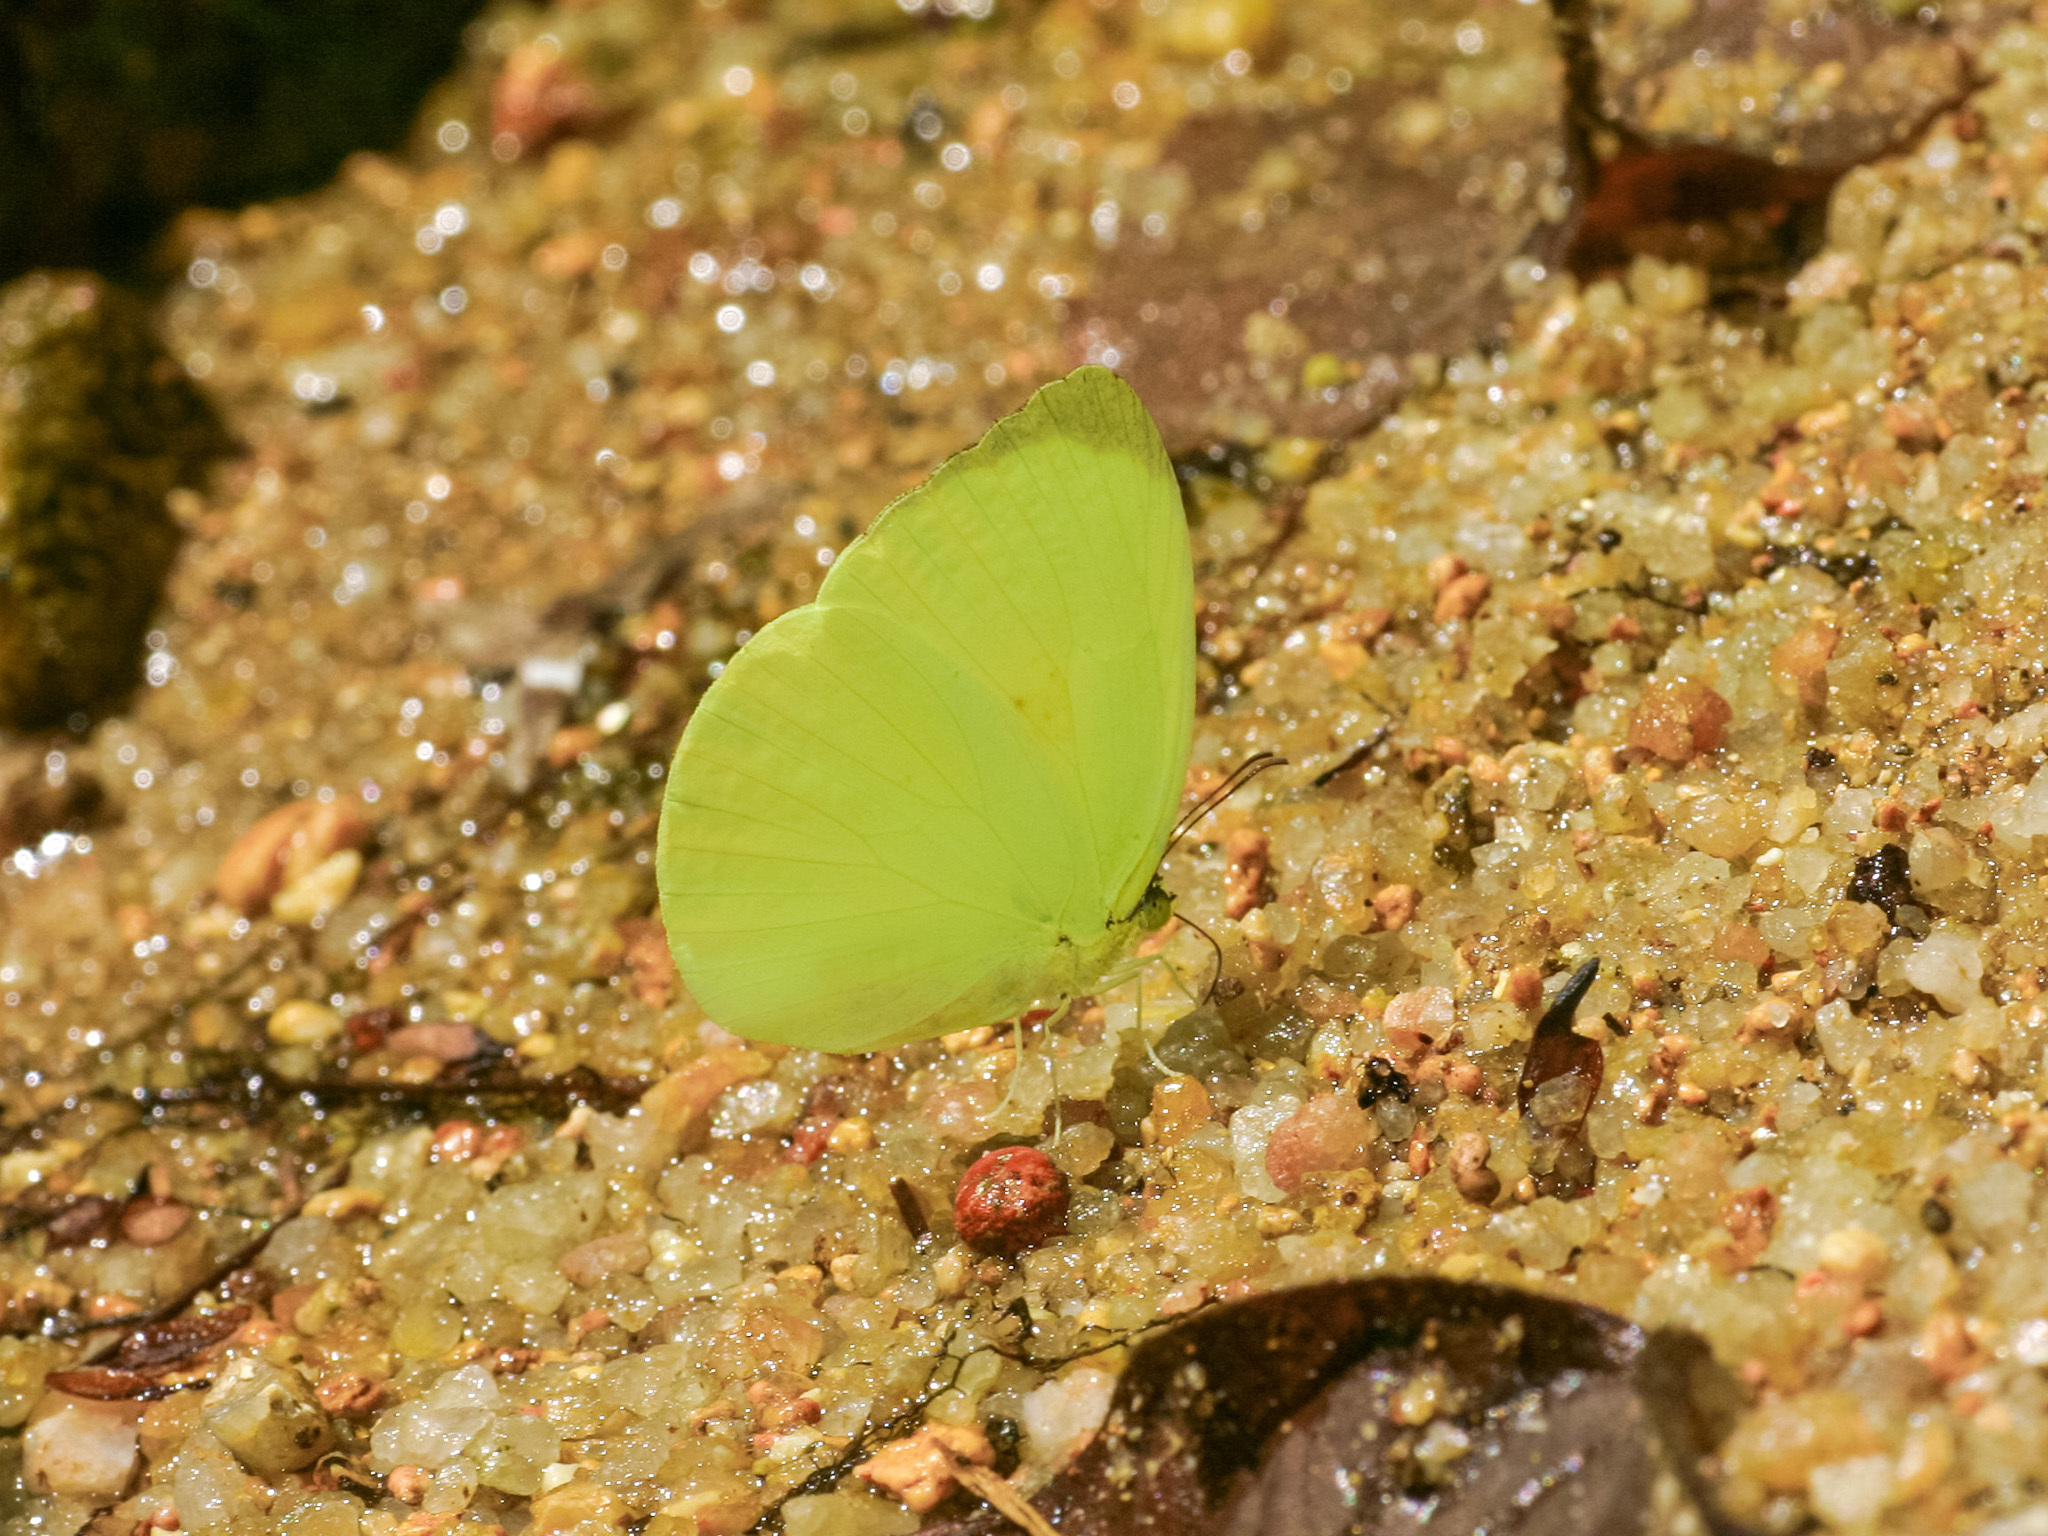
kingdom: Animalia
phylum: Arthropoda
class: Insecta
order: Lepidoptera
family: Pieridae
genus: Gandaca
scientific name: Gandaca harina
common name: Tree yellow
